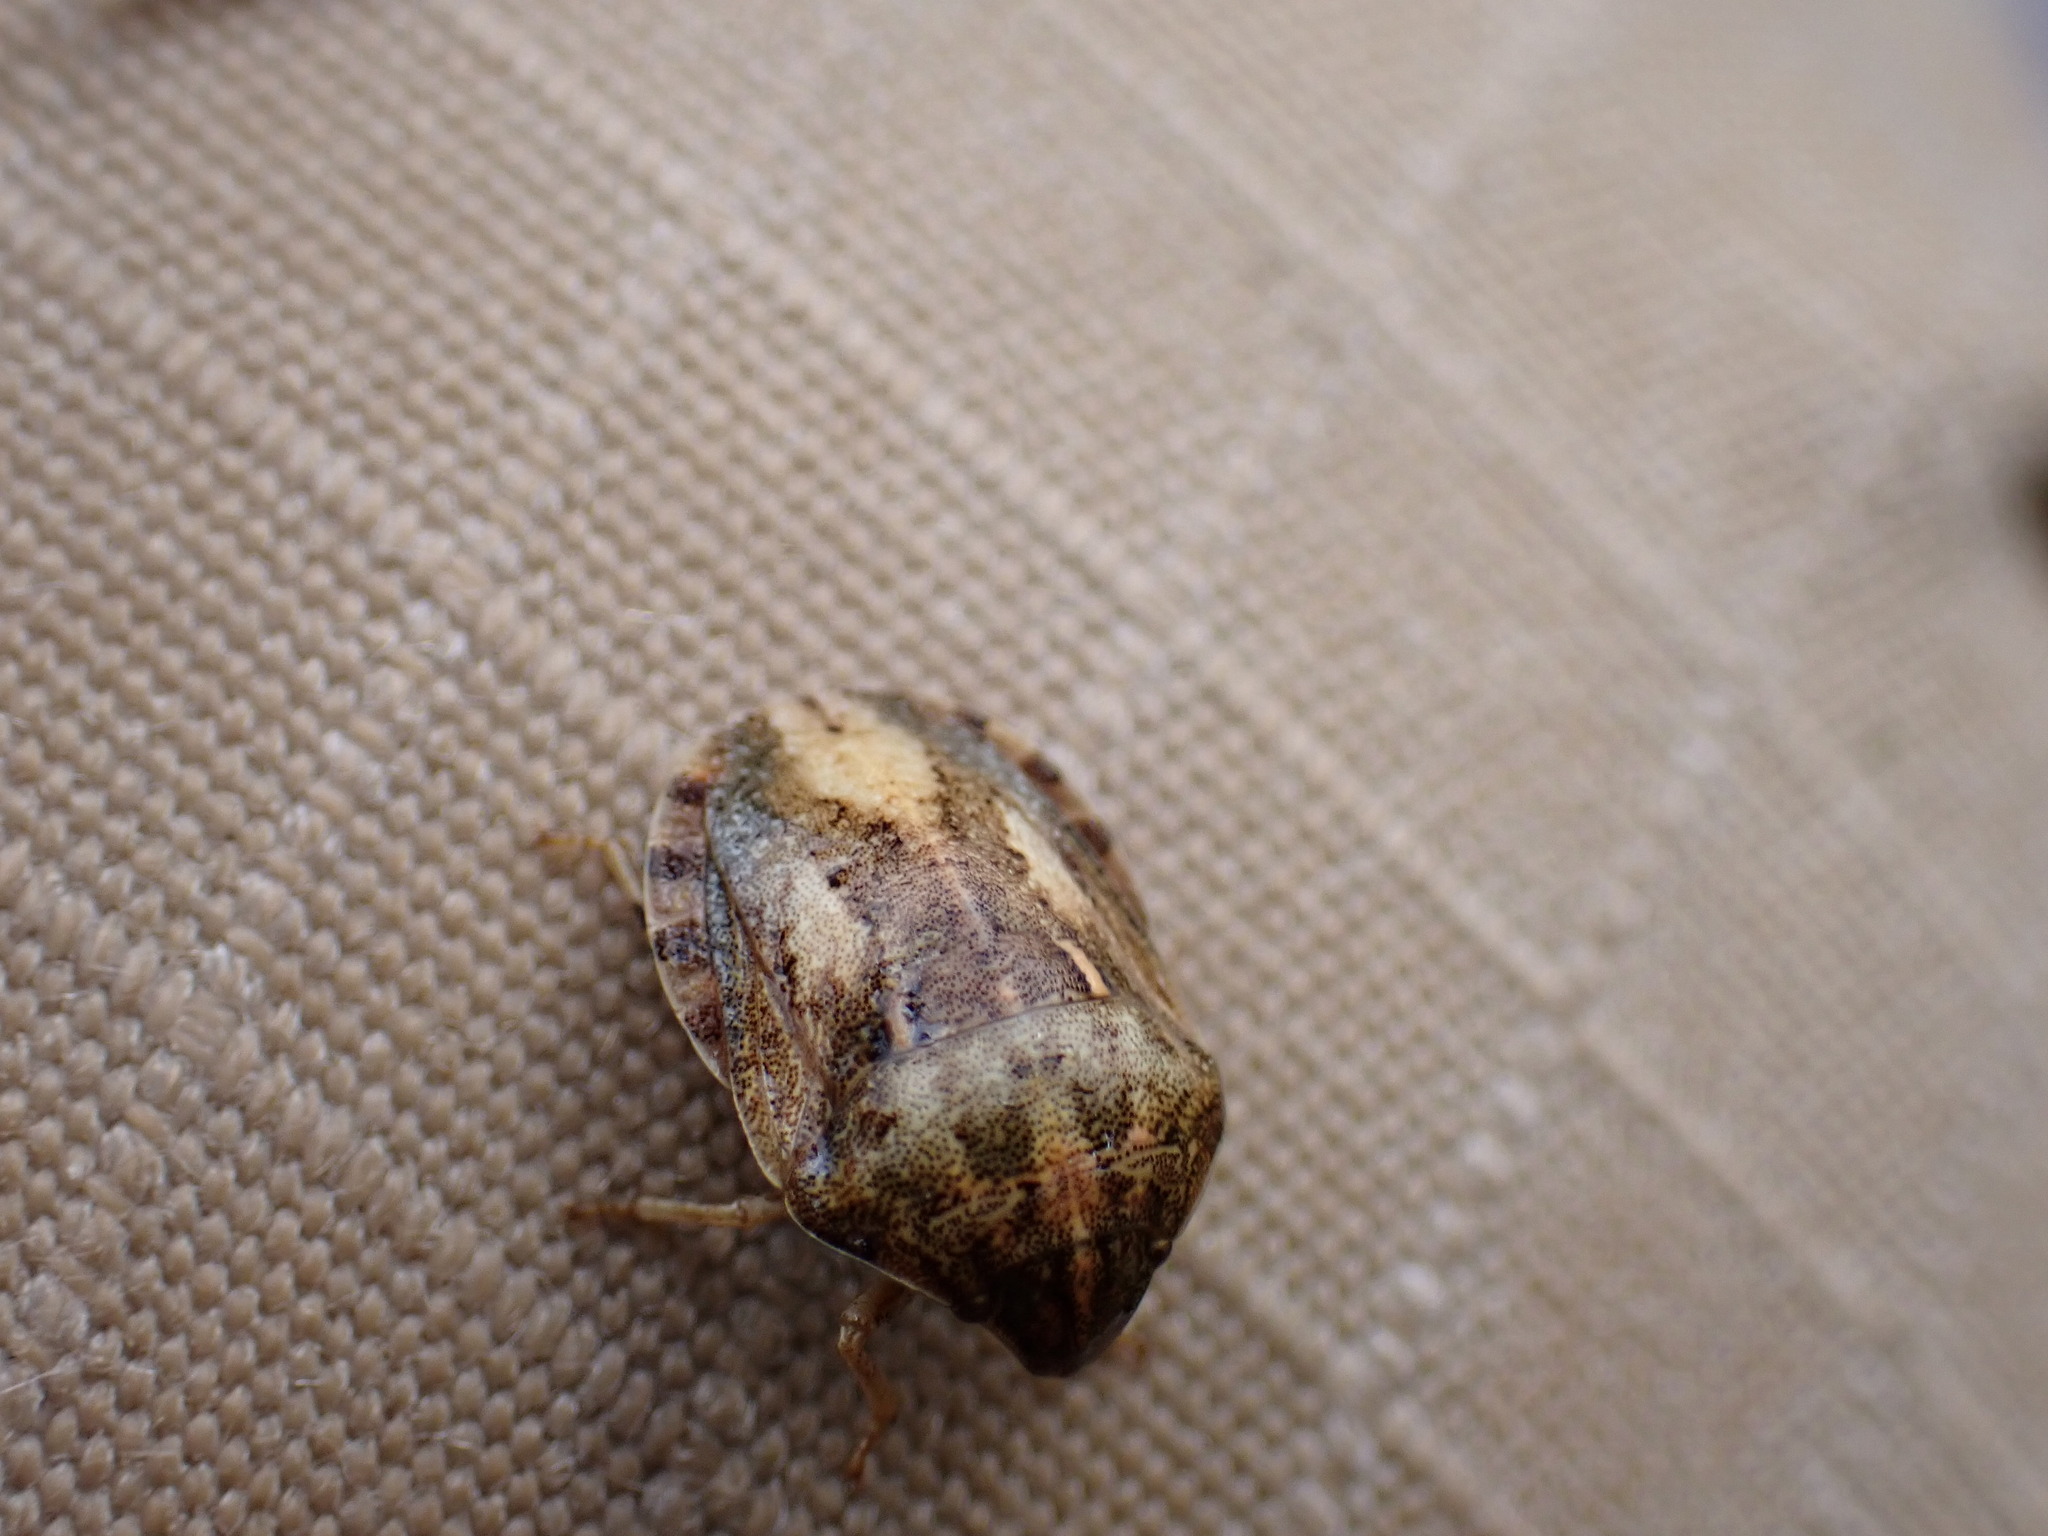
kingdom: Animalia
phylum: Arthropoda
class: Insecta
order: Hemiptera
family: Scutelleridae
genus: Eurygaster
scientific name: Eurygaster maura
